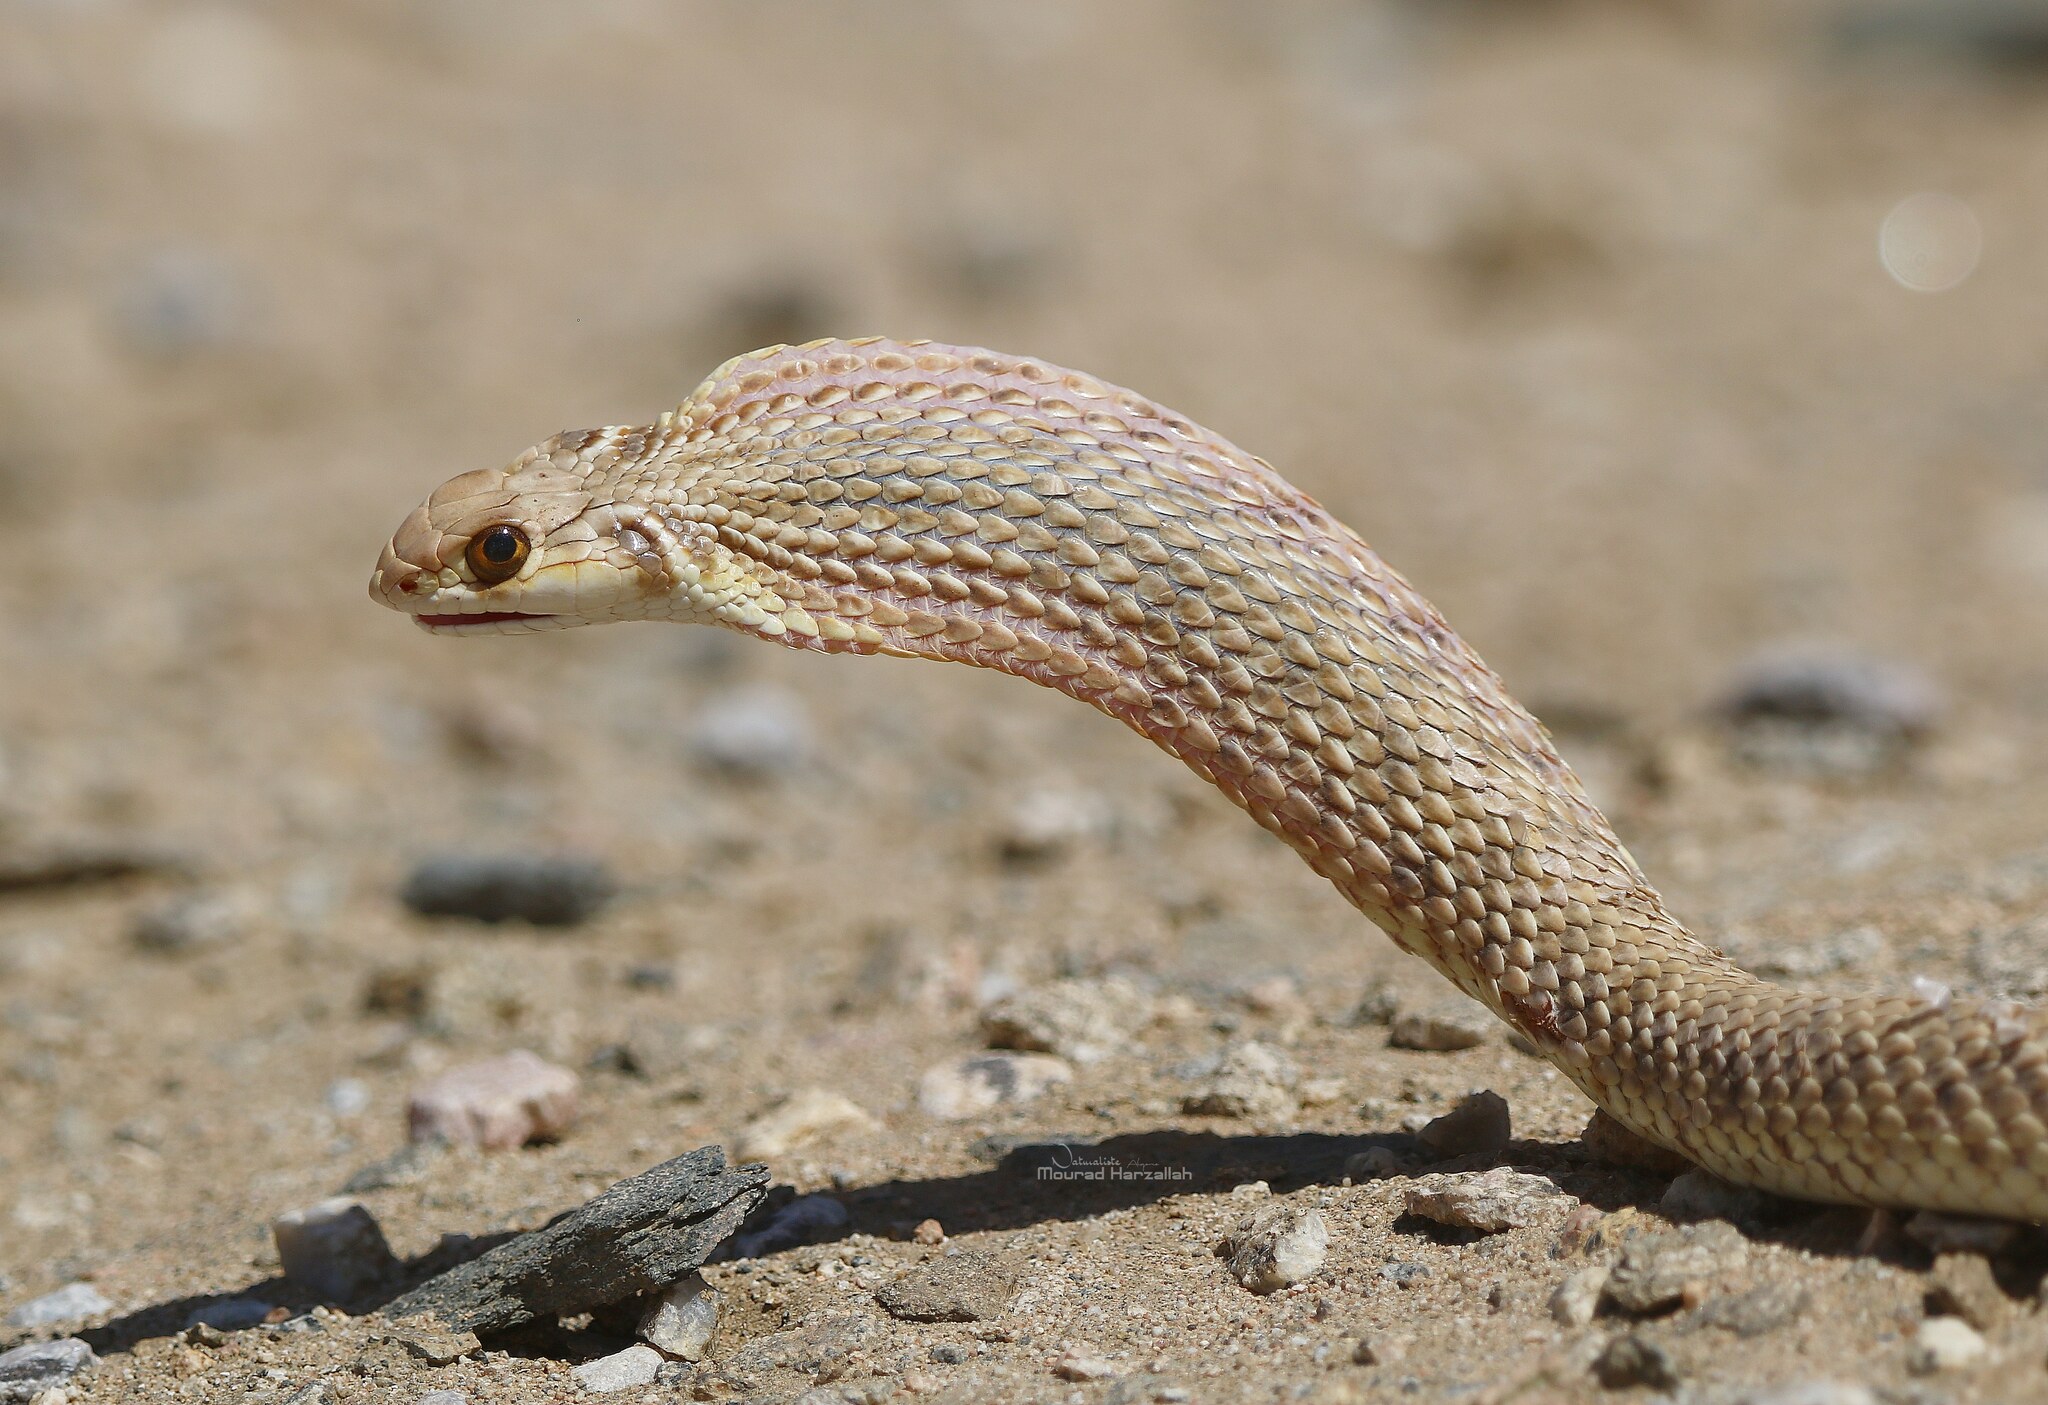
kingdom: Animalia
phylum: Chordata
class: Squamata
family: Psammophiidae
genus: Malpolon
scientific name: Malpolon moilensis
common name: Moila snake
